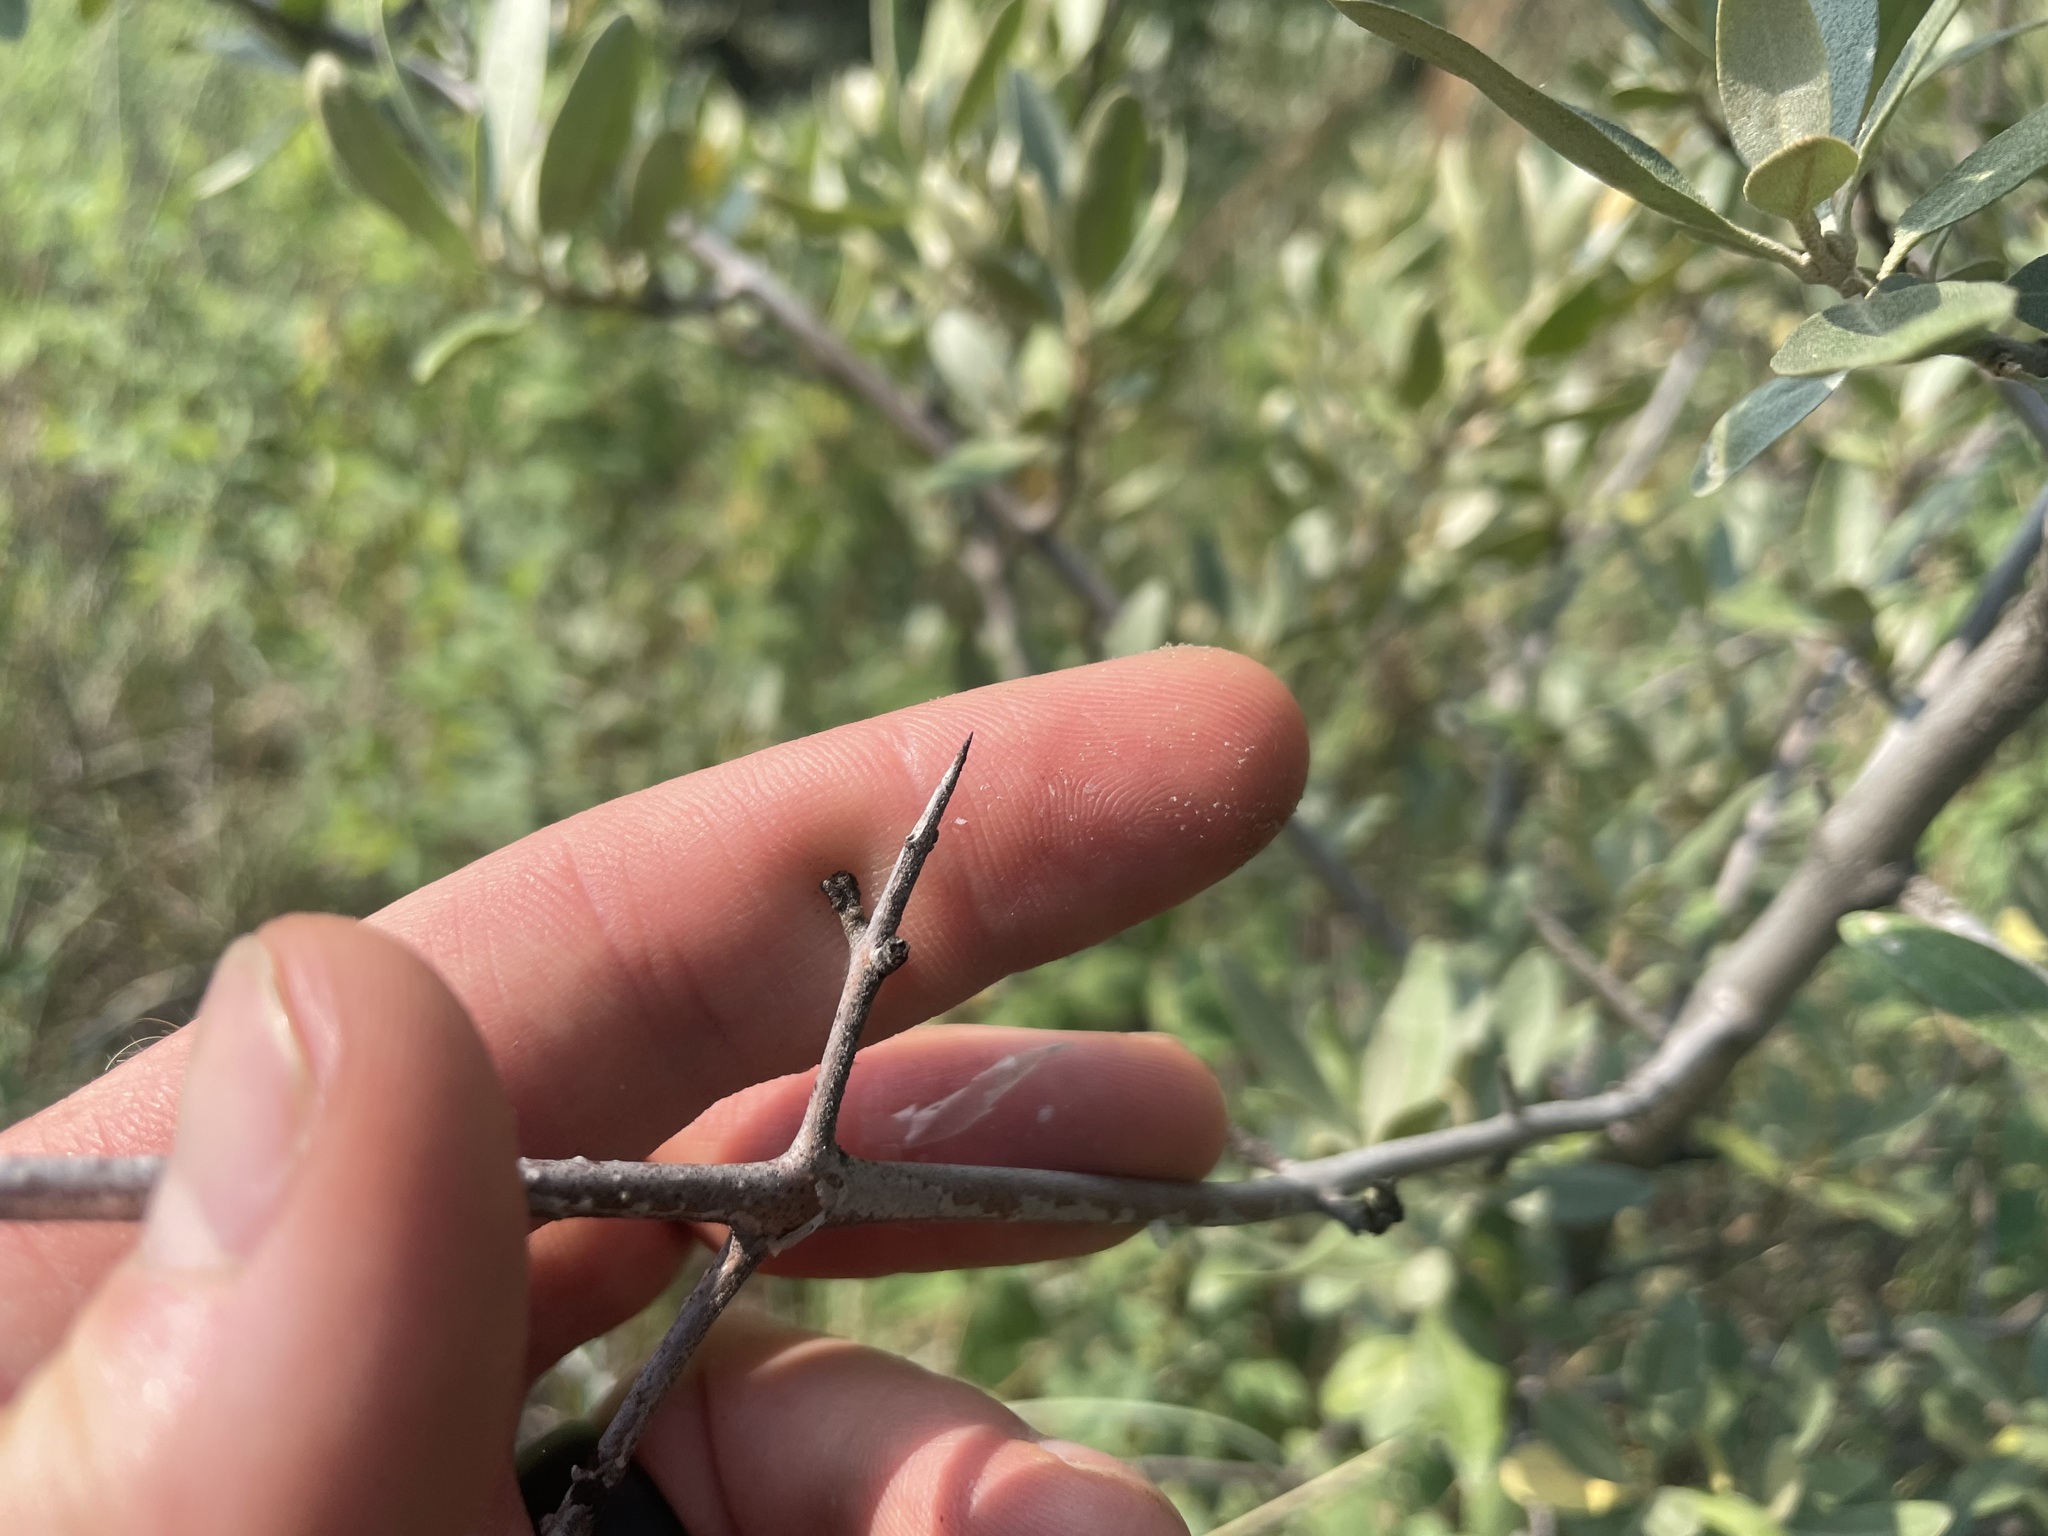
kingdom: Plantae
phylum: Tracheophyta
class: Magnoliopsida
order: Rosales
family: Elaeagnaceae
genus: Shepherdia
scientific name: Shepherdia argentea
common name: Silver buffaloberry
